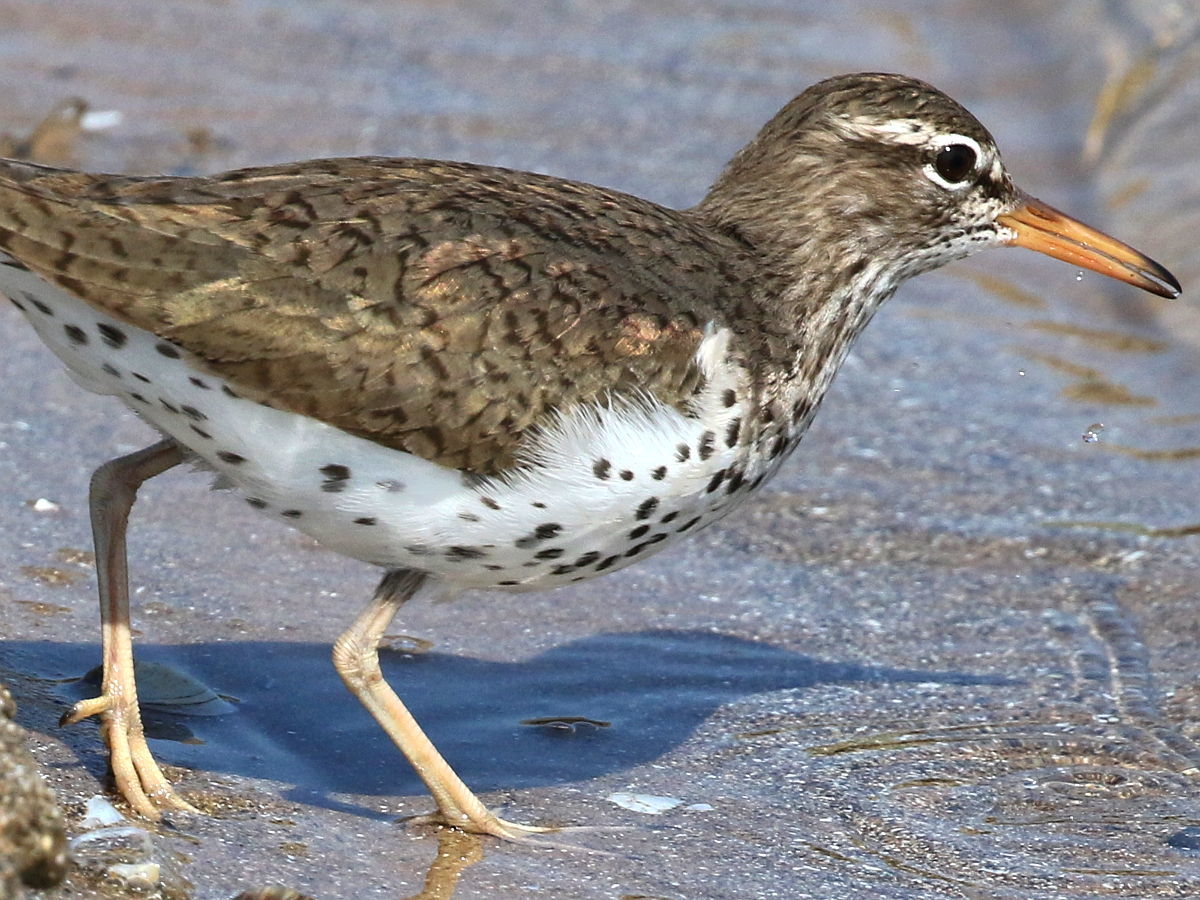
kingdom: Animalia
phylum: Chordata
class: Aves
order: Charadriiformes
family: Scolopacidae
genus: Actitis
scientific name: Actitis macularius
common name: Spotted sandpiper
